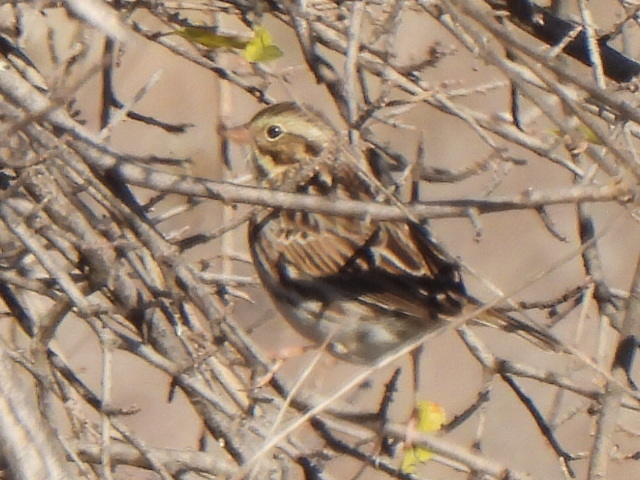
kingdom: Animalia
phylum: Chordata
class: Aves
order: Passeriformes
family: Passerellidae
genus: Passerculus
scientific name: Passerculus sandwichensis
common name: Savannah sparrow
